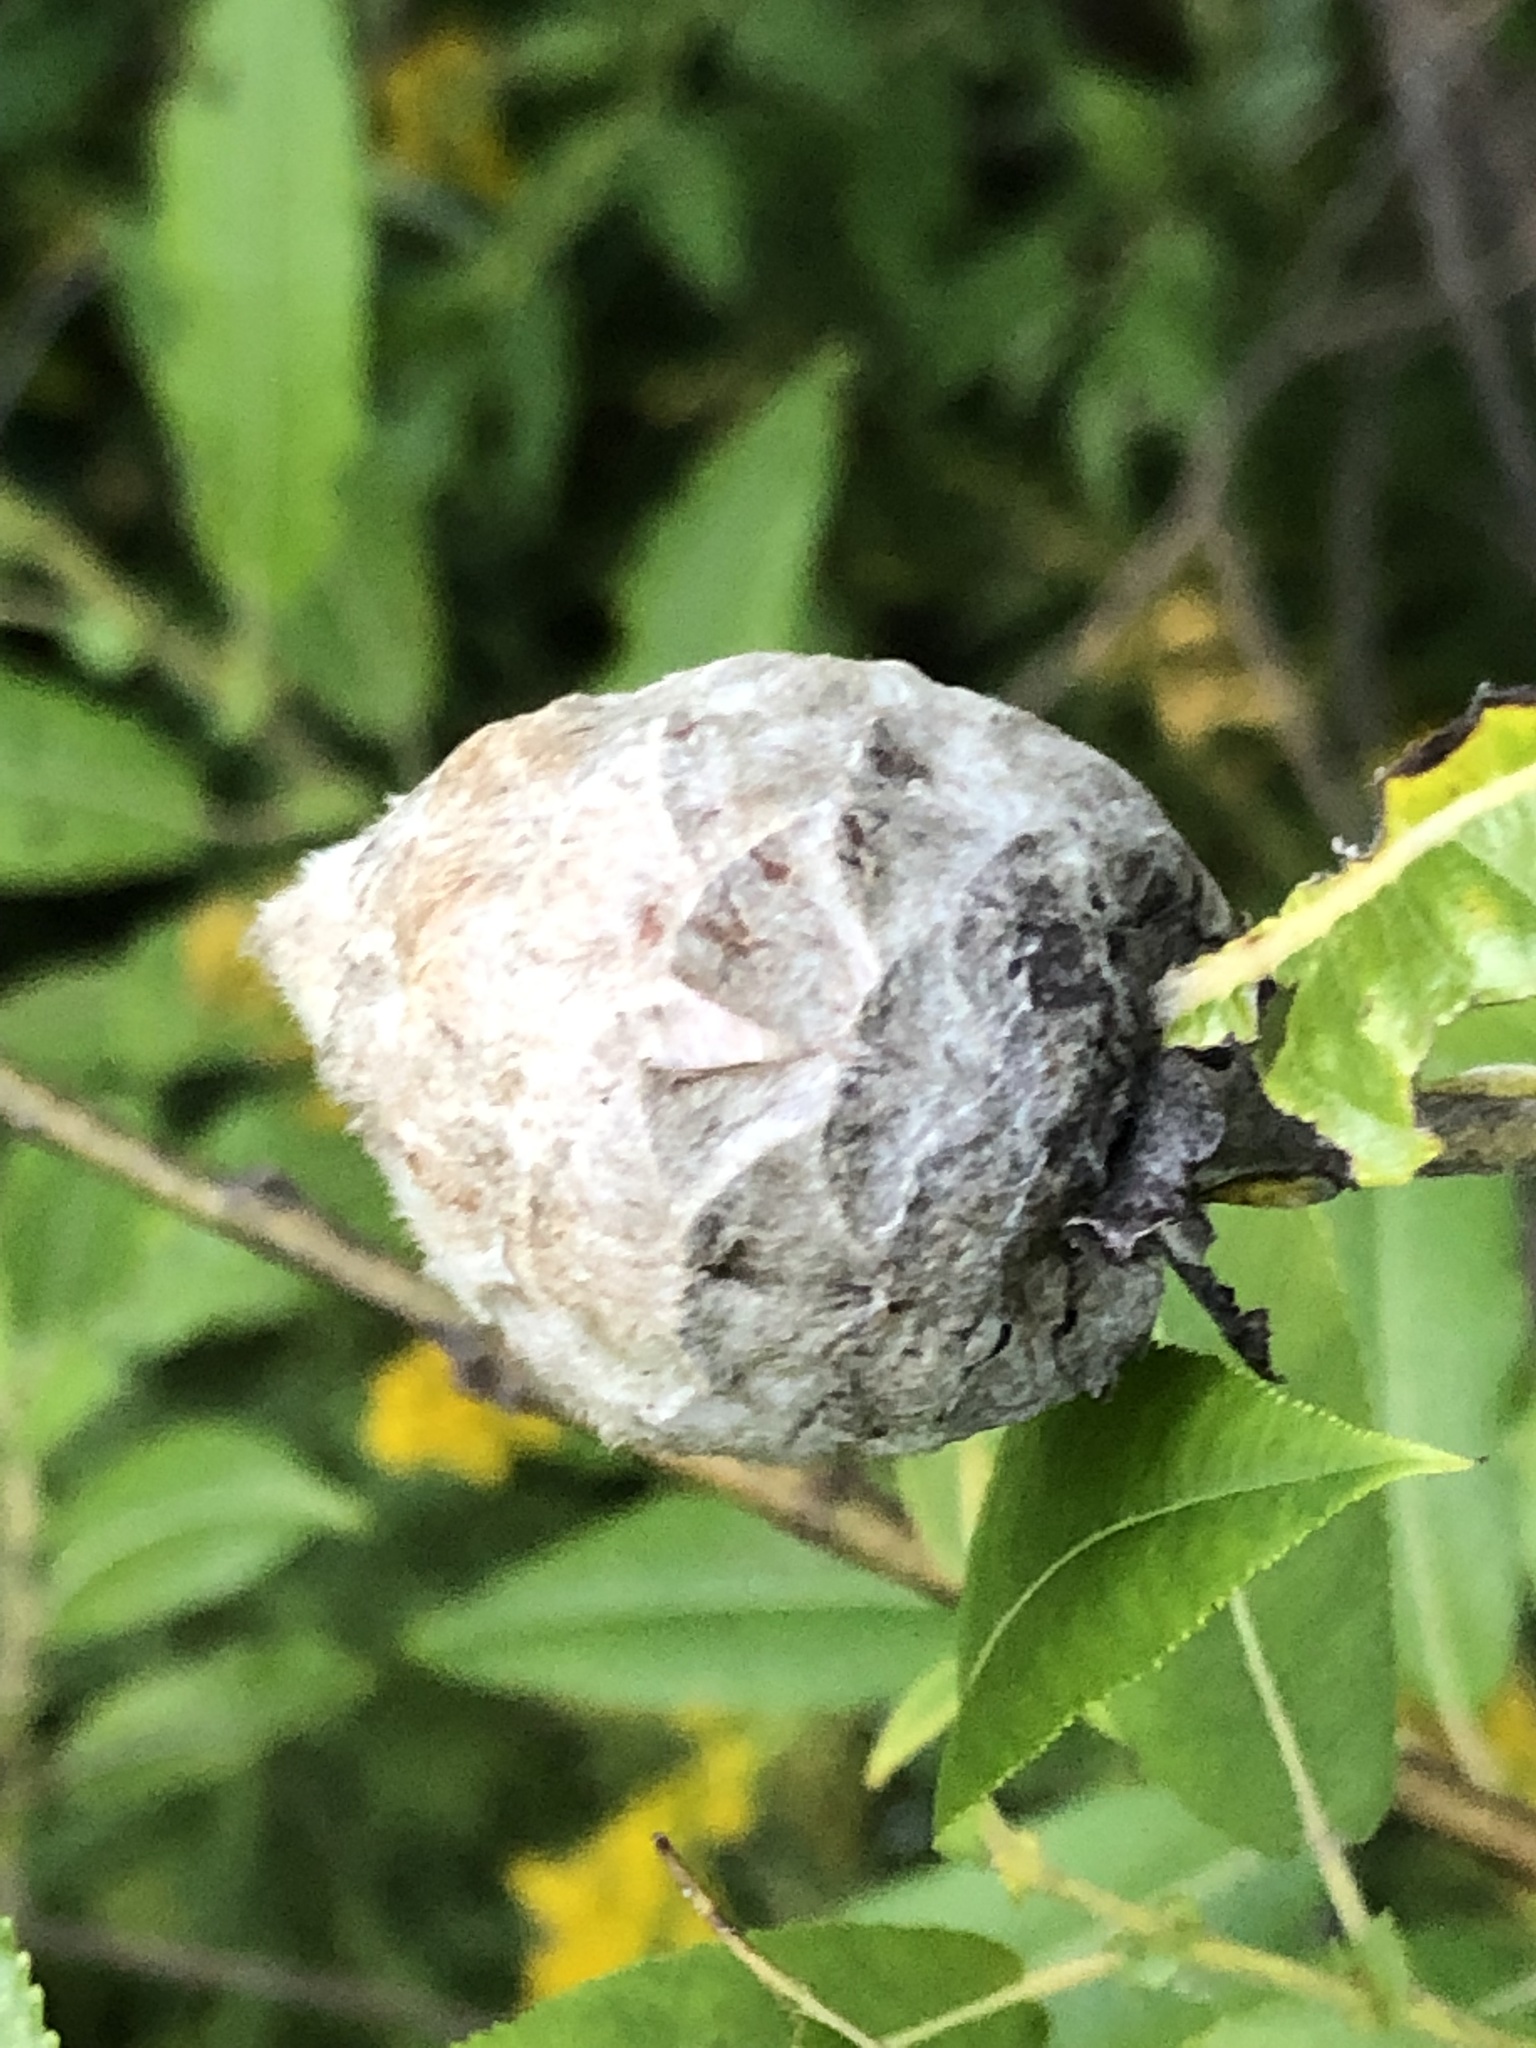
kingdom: Animalia
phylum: Arthropoda
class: Insecta
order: Diptera
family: Cecidomyiidae
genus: Rabdophaga
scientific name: Rabdophaga strobiloides
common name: Willow pinecone gall midge
